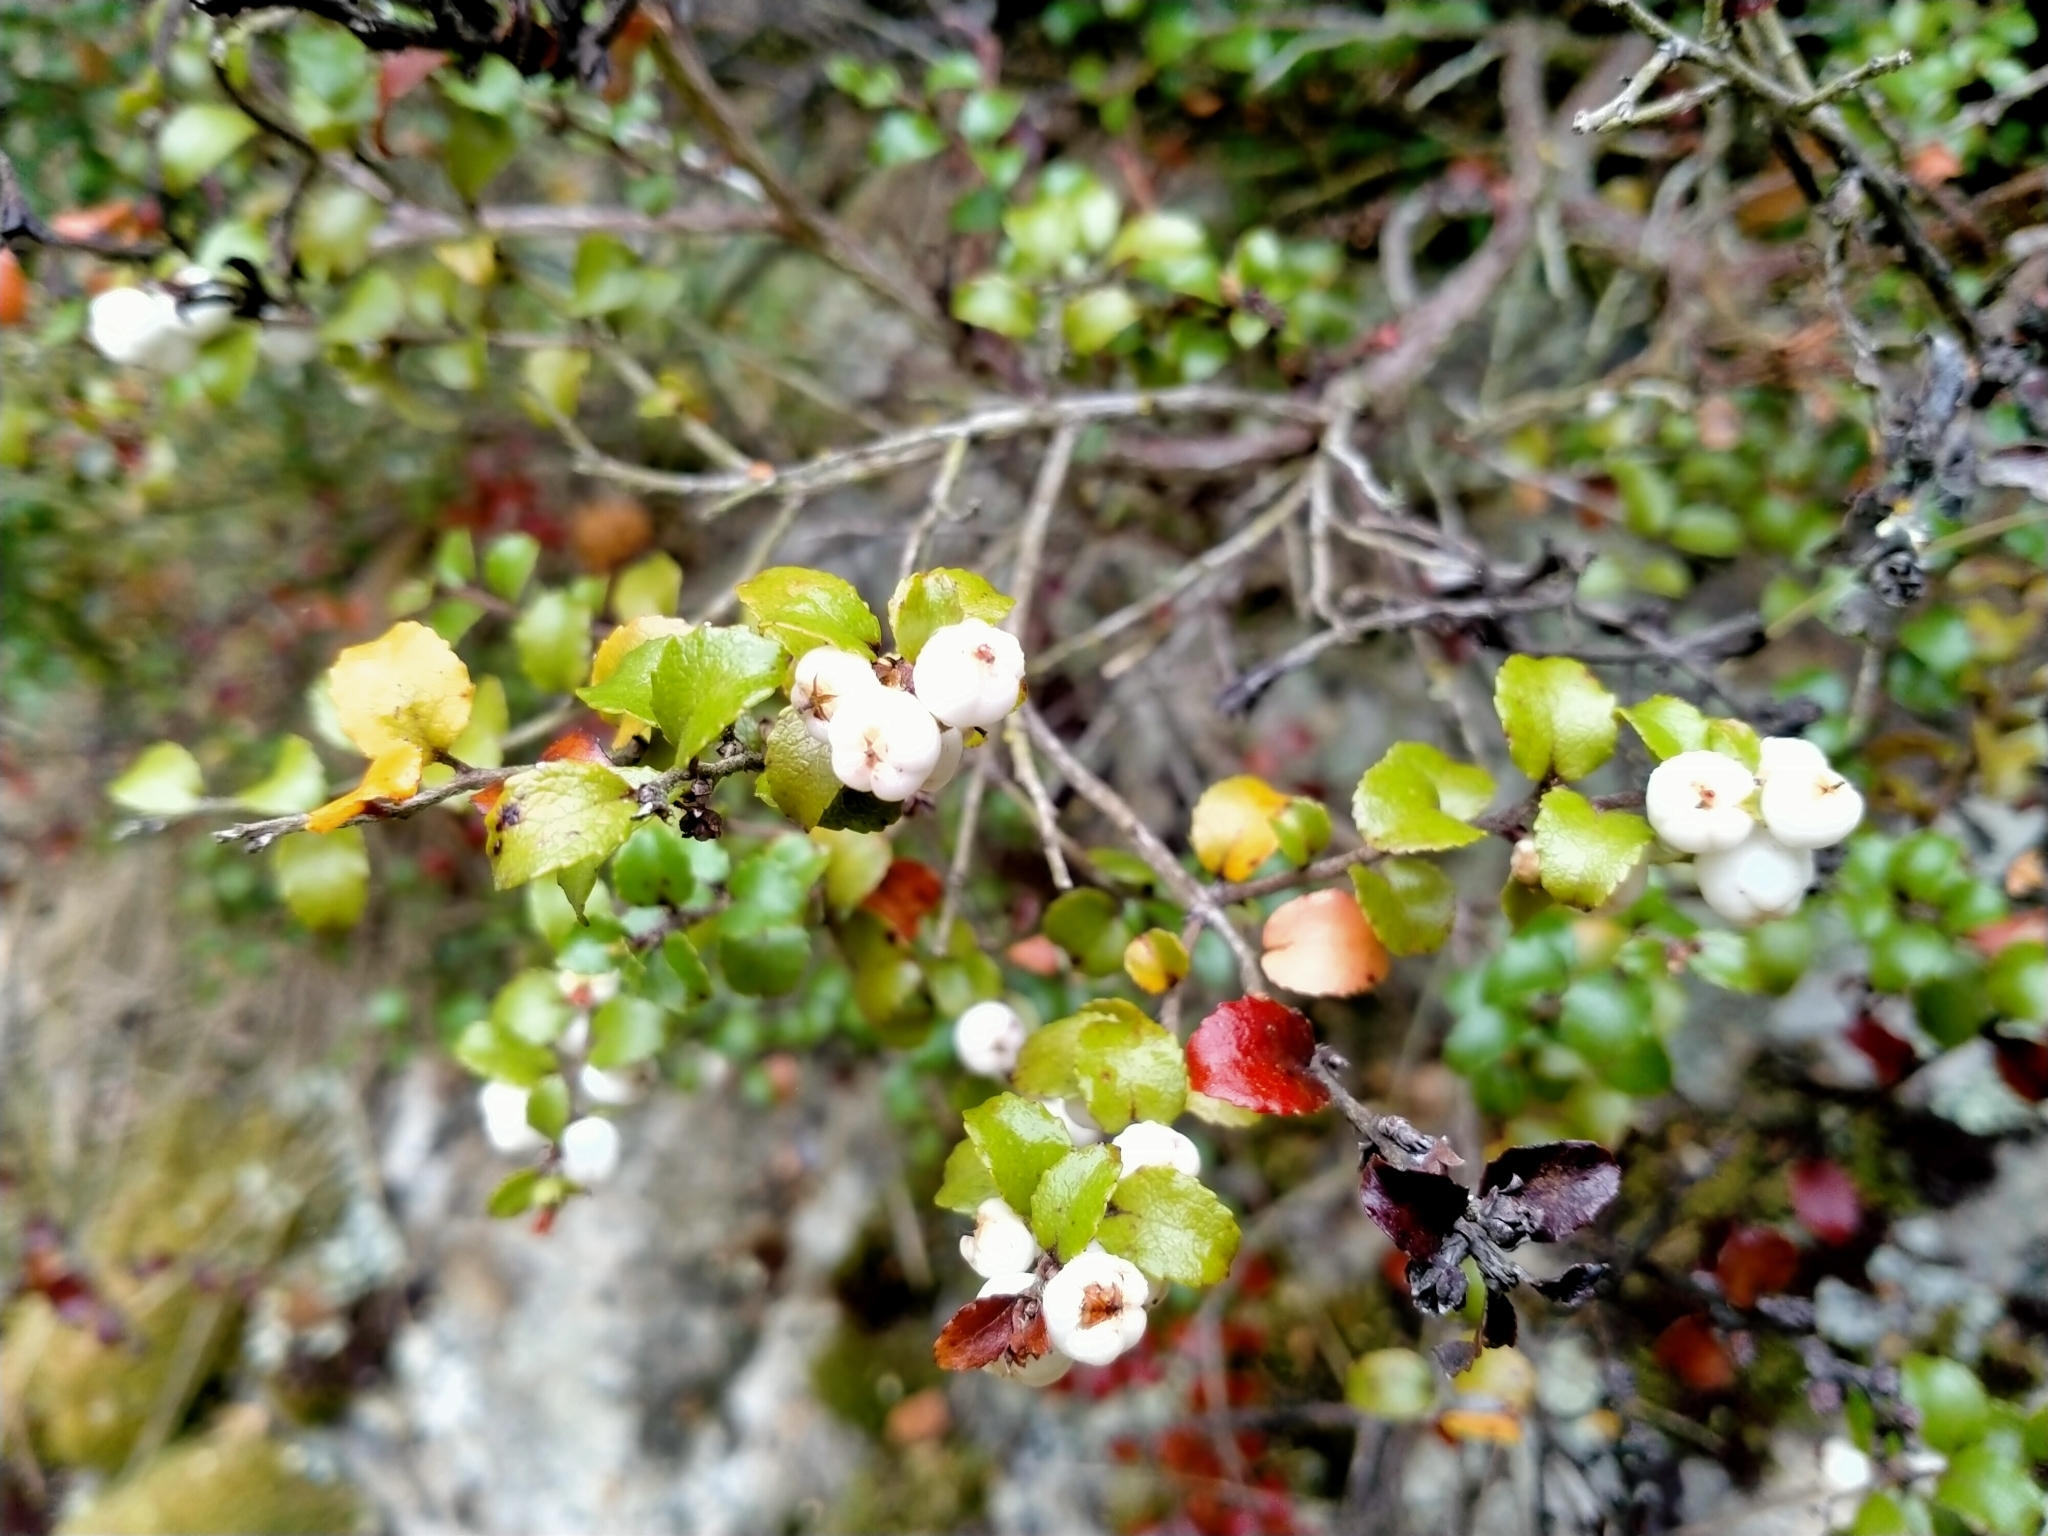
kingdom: Plantae
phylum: Tracheophyta
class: Magnoliopsida
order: Ericales
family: Ericaceae
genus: Gaultheria
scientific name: Gaultheria antipoda
